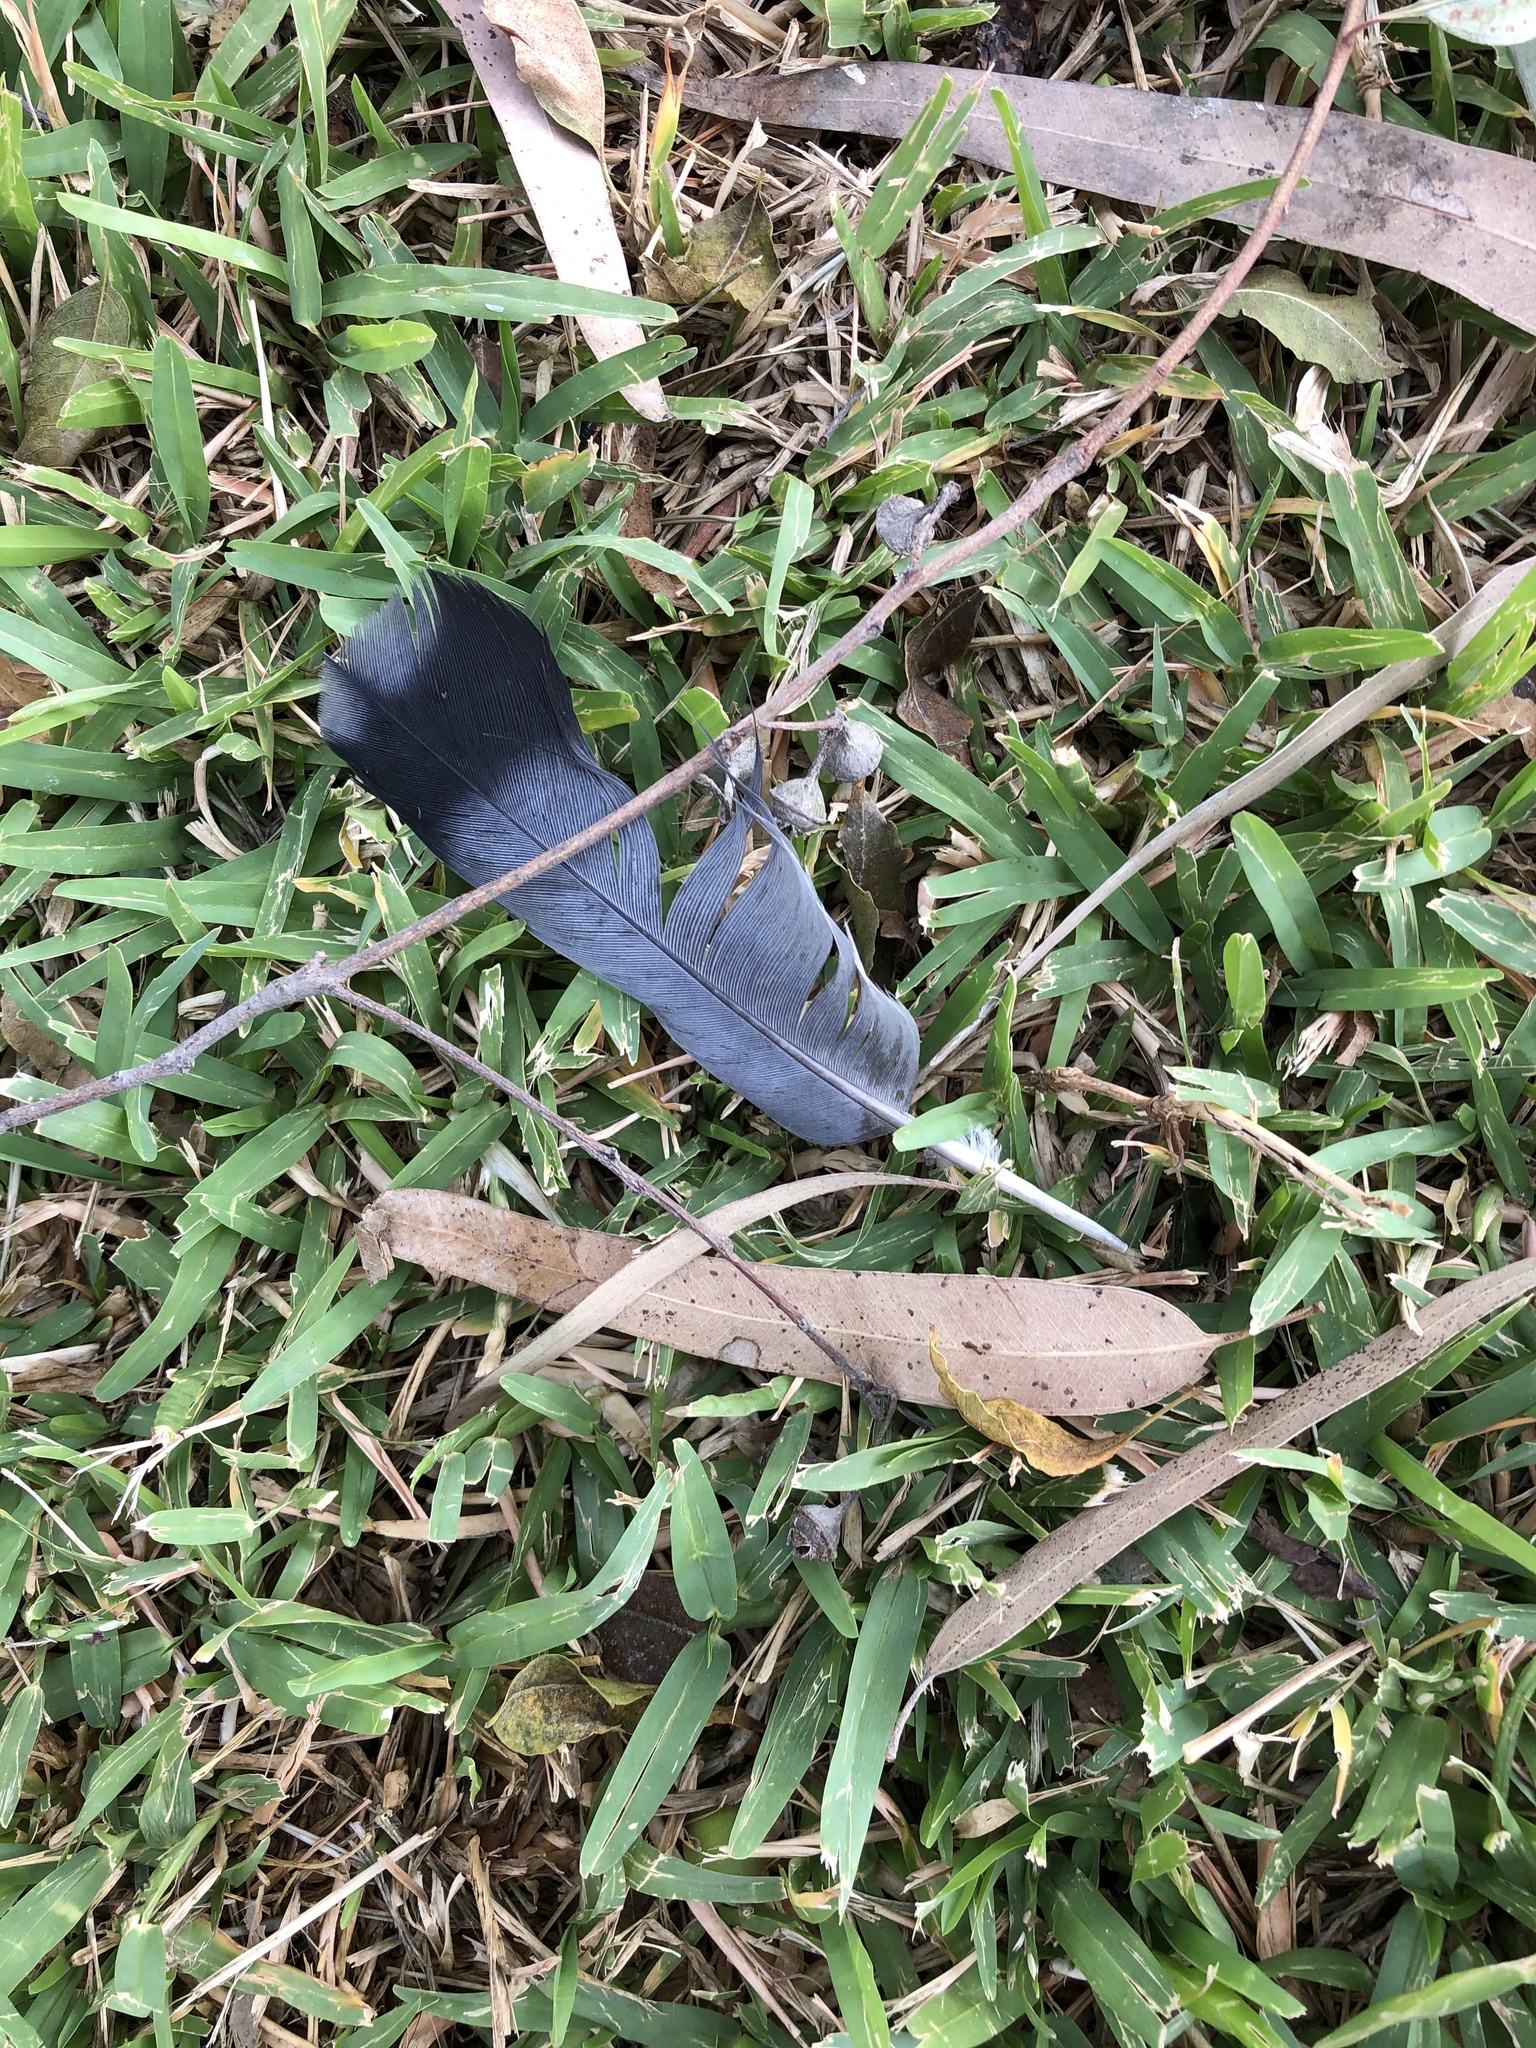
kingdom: Animalia
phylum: Chordata
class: Aves
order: Columbiformes
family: Columbidae
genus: Columba
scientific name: Columba livia
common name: Rock pigeon
